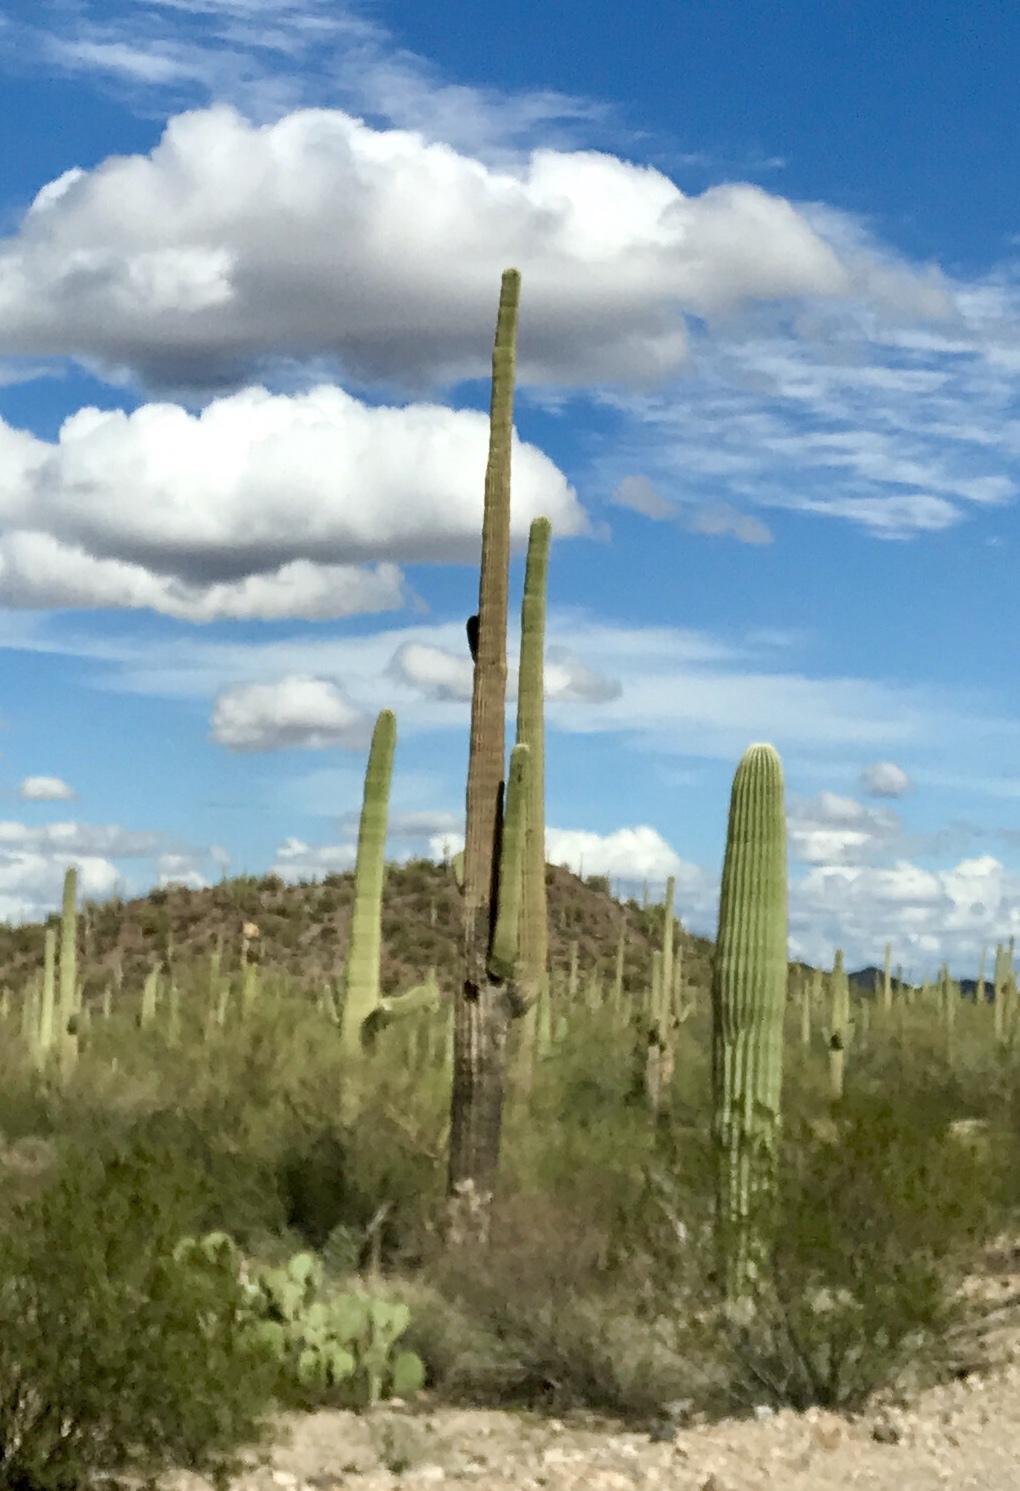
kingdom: Plantae
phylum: Tracheophyta
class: Magnoliopsida
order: Caryophyllales
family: Cactaceae
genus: Carnegiea
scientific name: Carnegiea gigantea
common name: Saguaro
